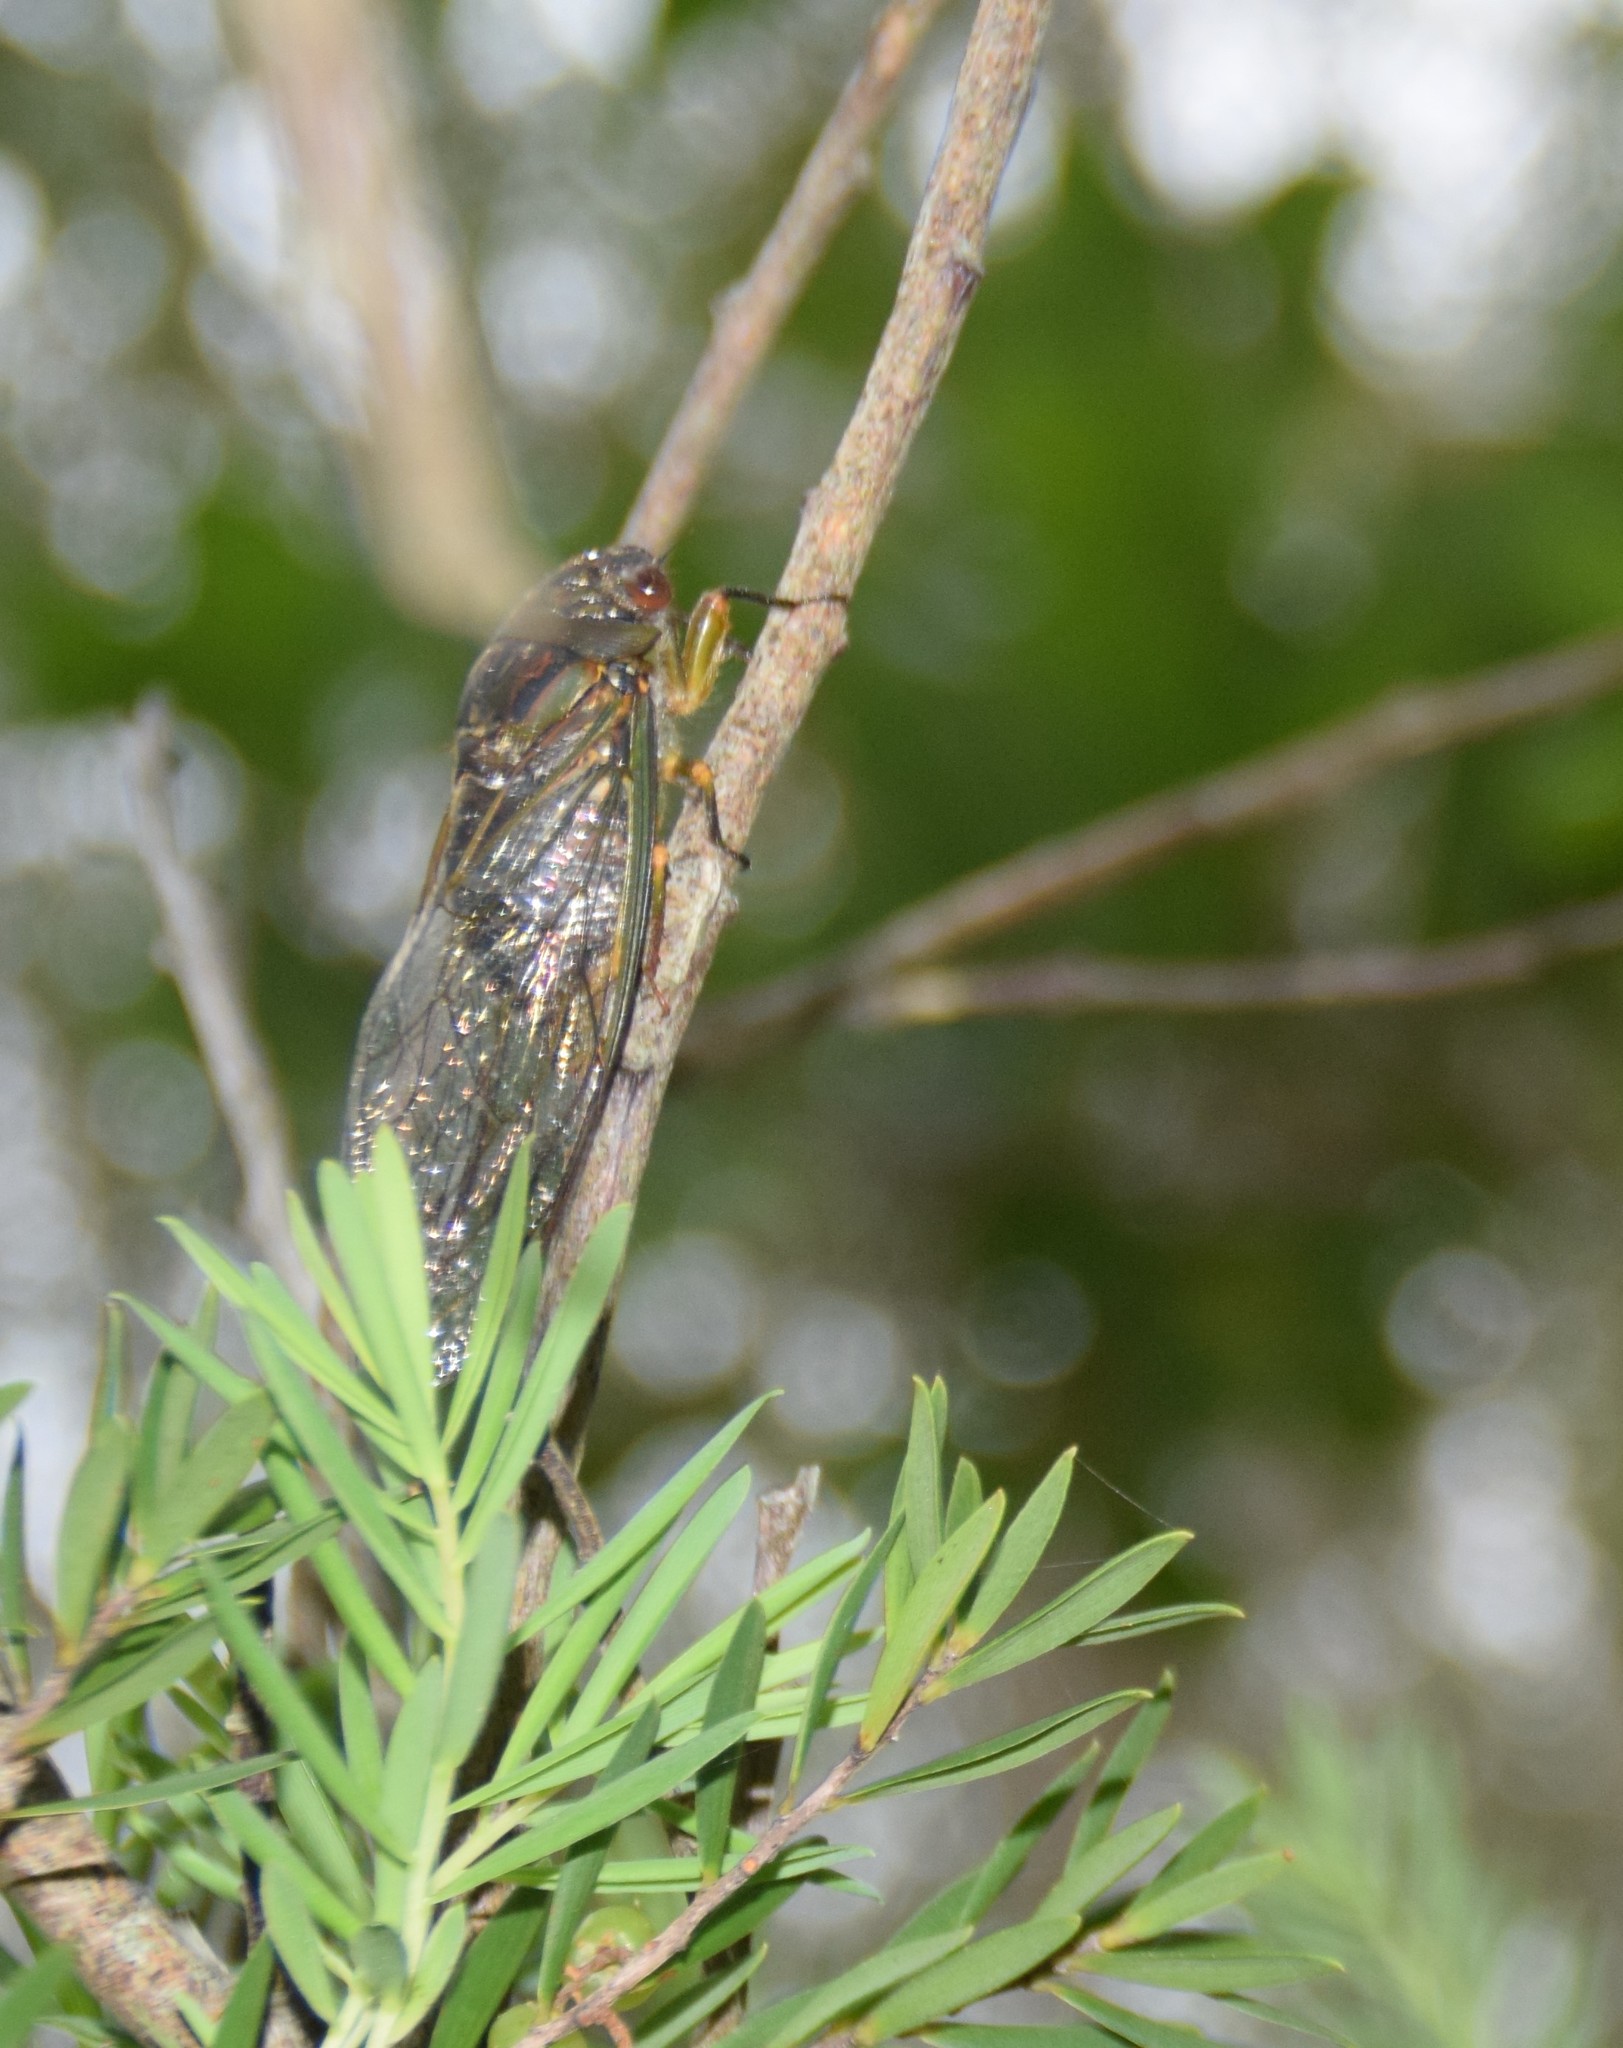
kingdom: Animalia
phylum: Arthropoda
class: Insecta
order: Hemiptera
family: Cicadidae
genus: Psaltoda
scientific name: Psaltoda plaga
